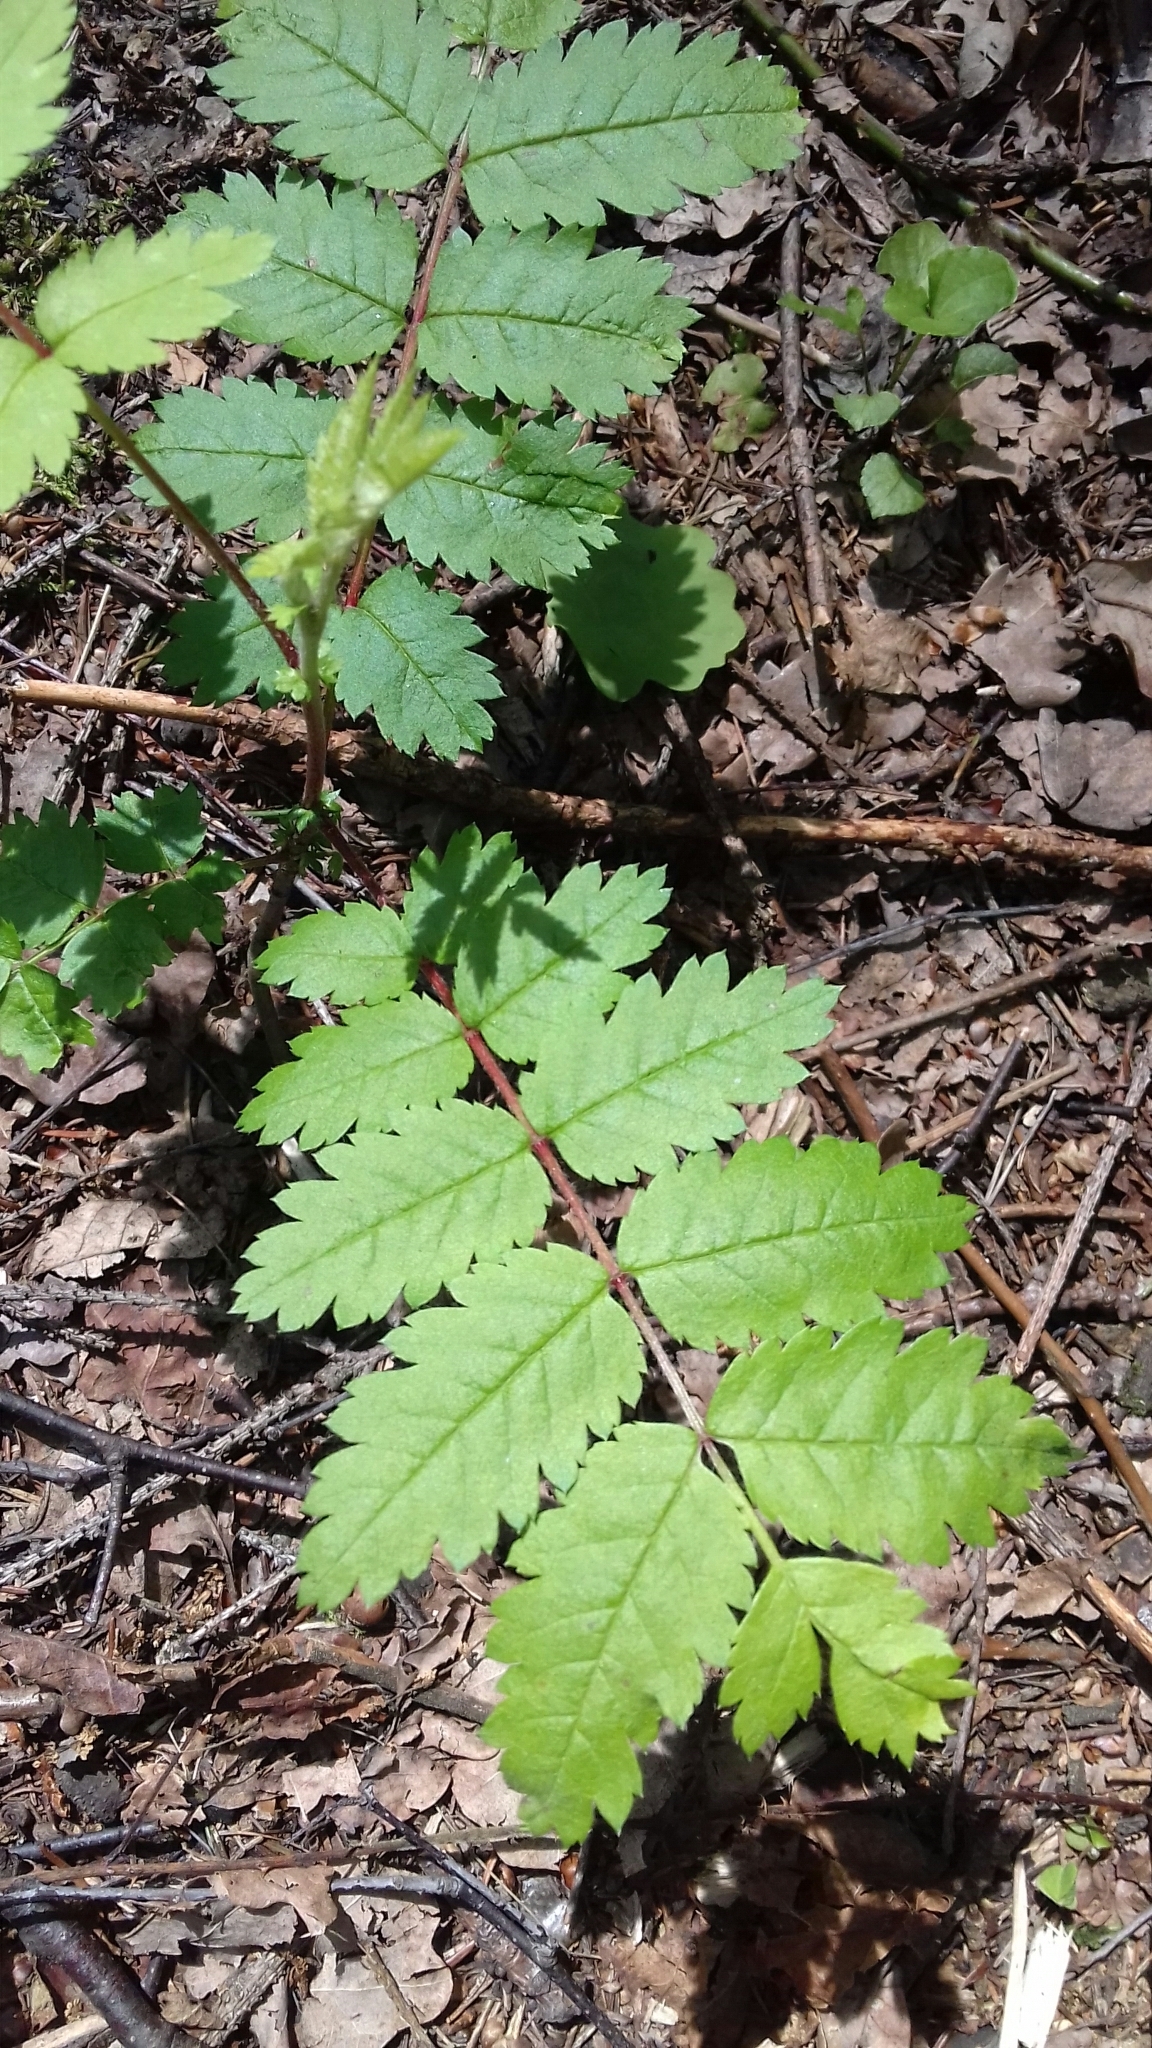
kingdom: Plantae
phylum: Tracheophyta
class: Magnoliopsida
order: Rosales
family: Rosaceae
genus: Sorbus
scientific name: Sorbus aucuparia
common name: Rowan
